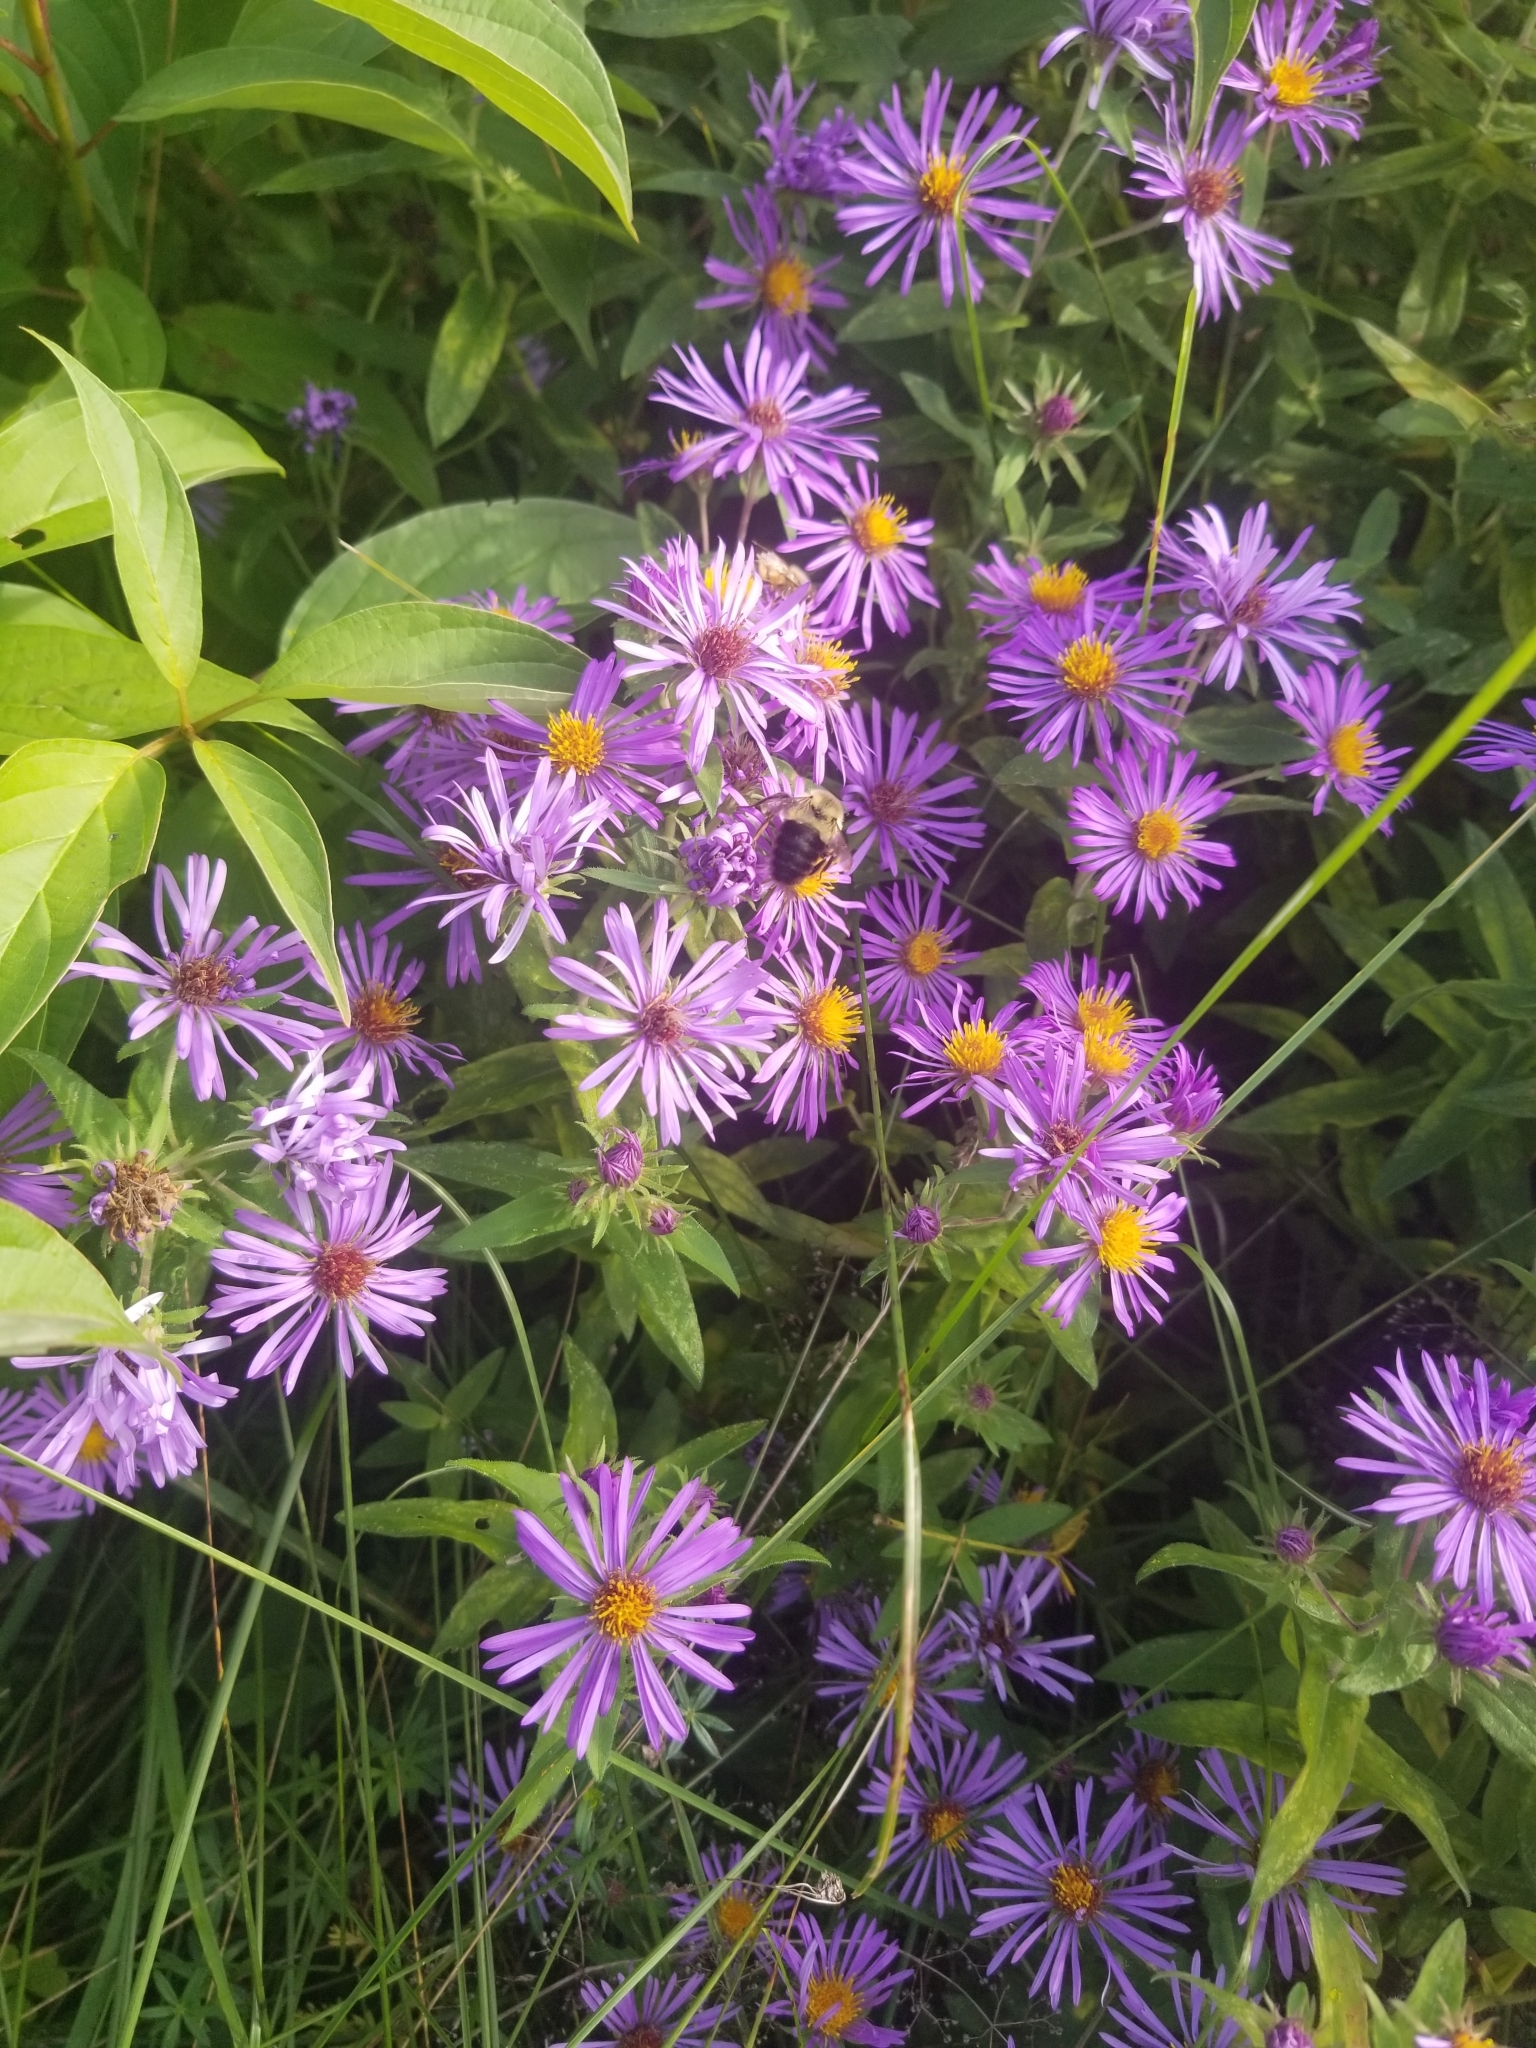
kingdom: Animalia
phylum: Arthropoda
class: Insecta
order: Hymenoptera
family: Apidae
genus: Bombus
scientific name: Bombus impatiens
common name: Common eastern bumble bee
